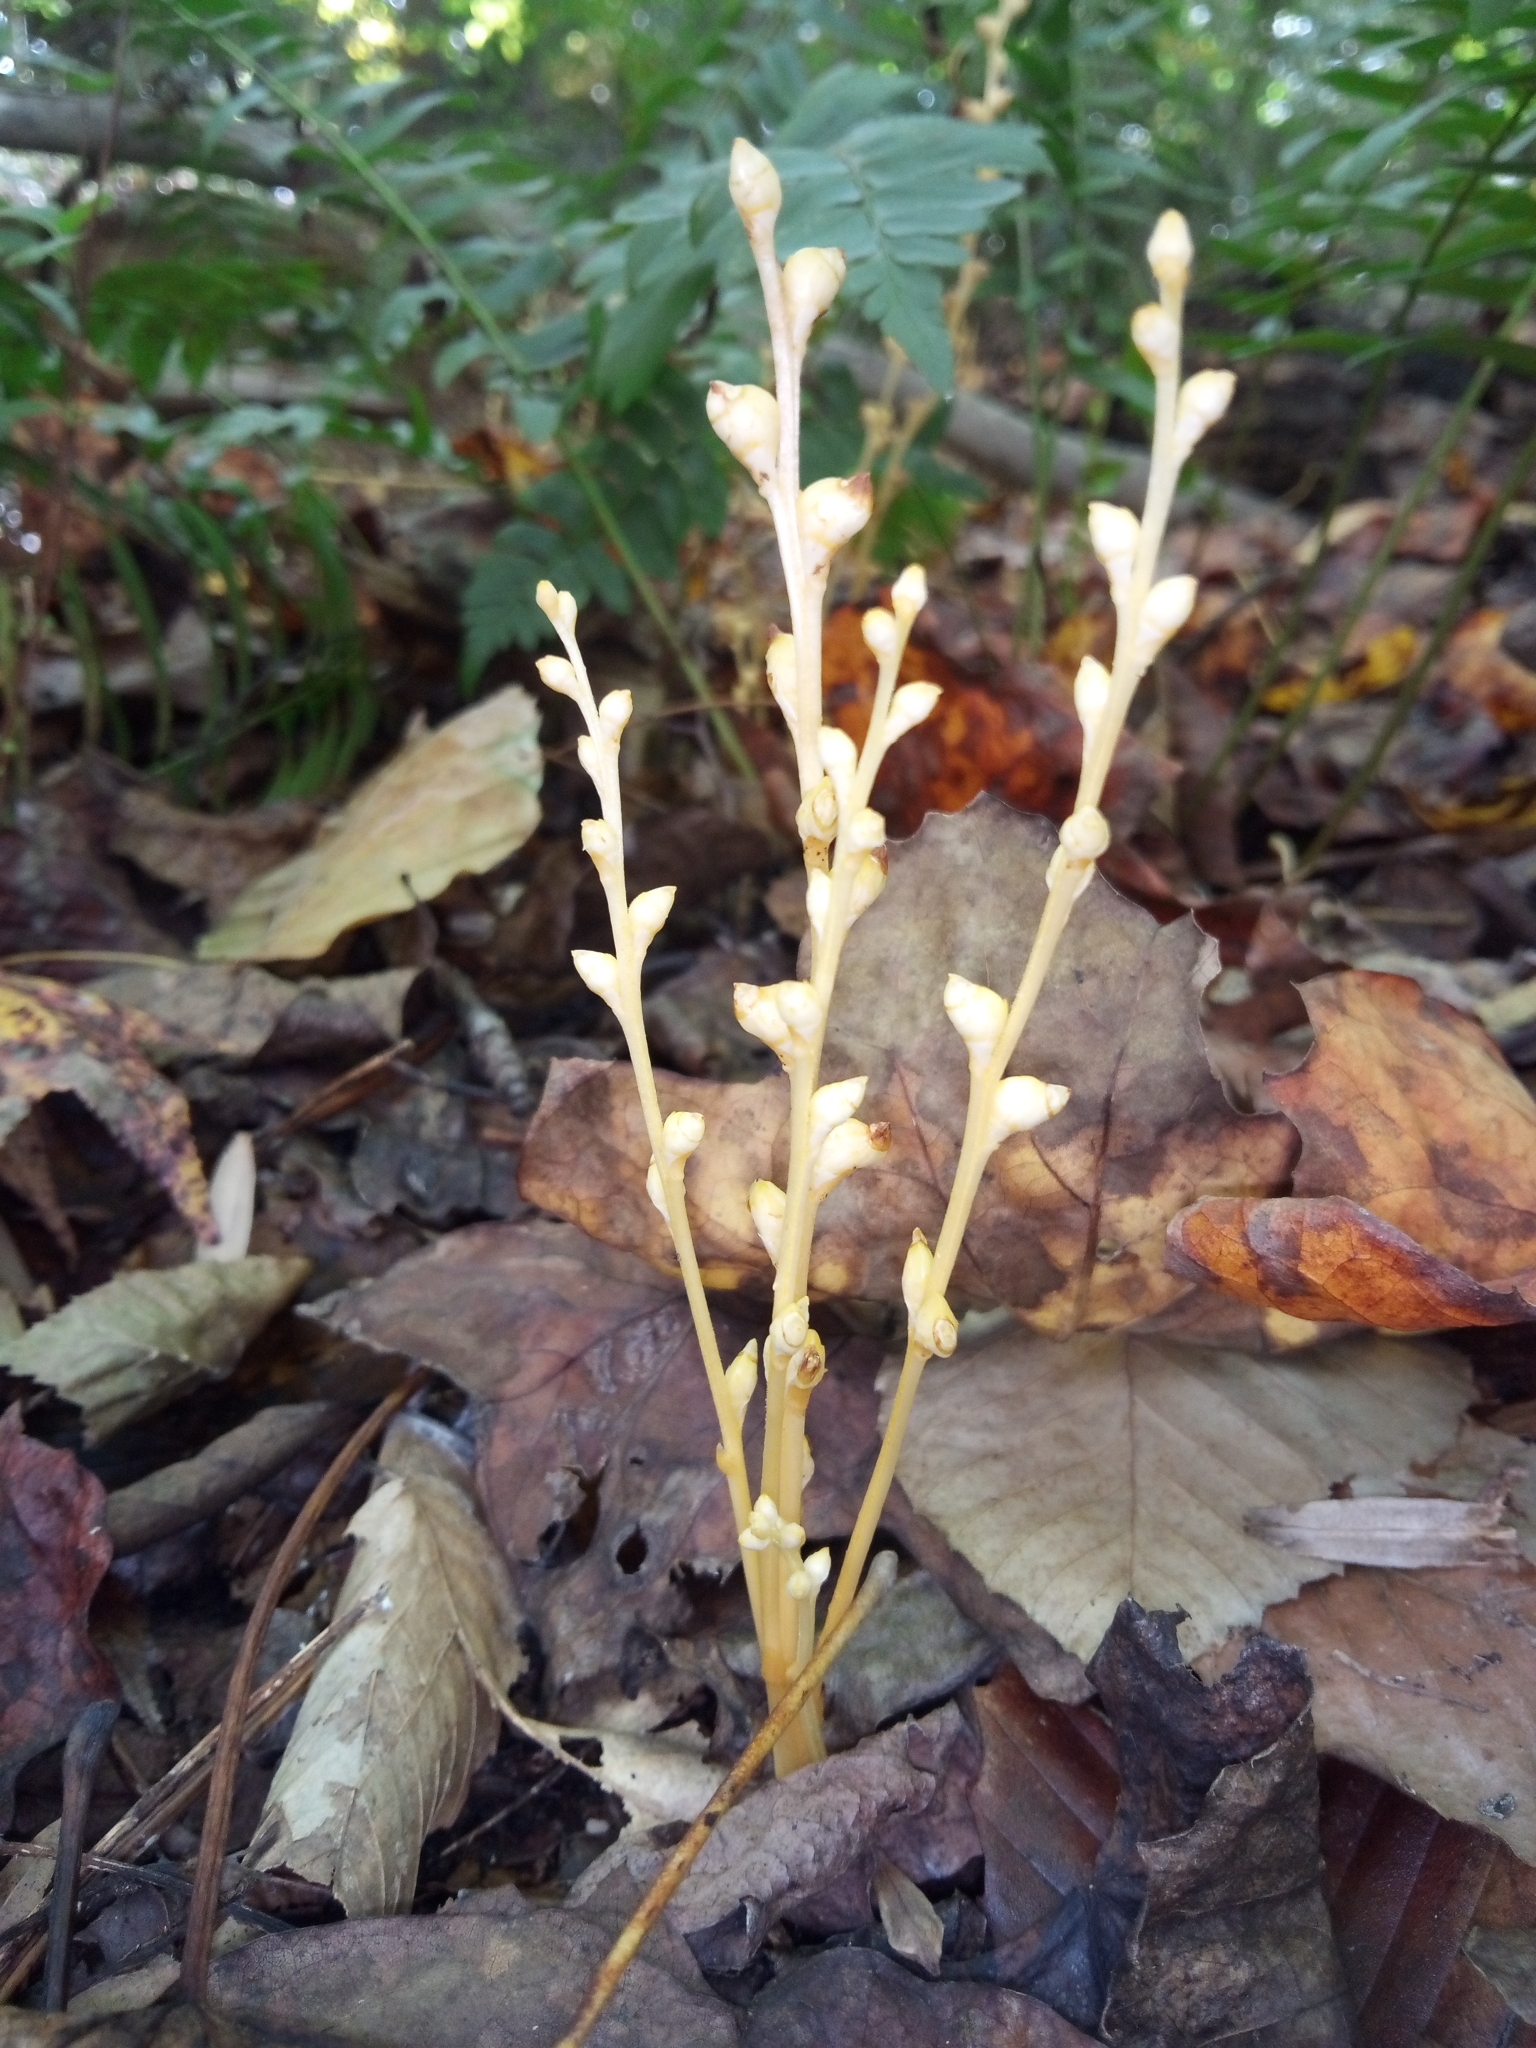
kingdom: Plantae
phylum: Tracheophyta
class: Magnoliopsida
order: Lamiales
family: Orobanchaceae
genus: Epifagus
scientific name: Epifagus virginiana
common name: Beechdrops
